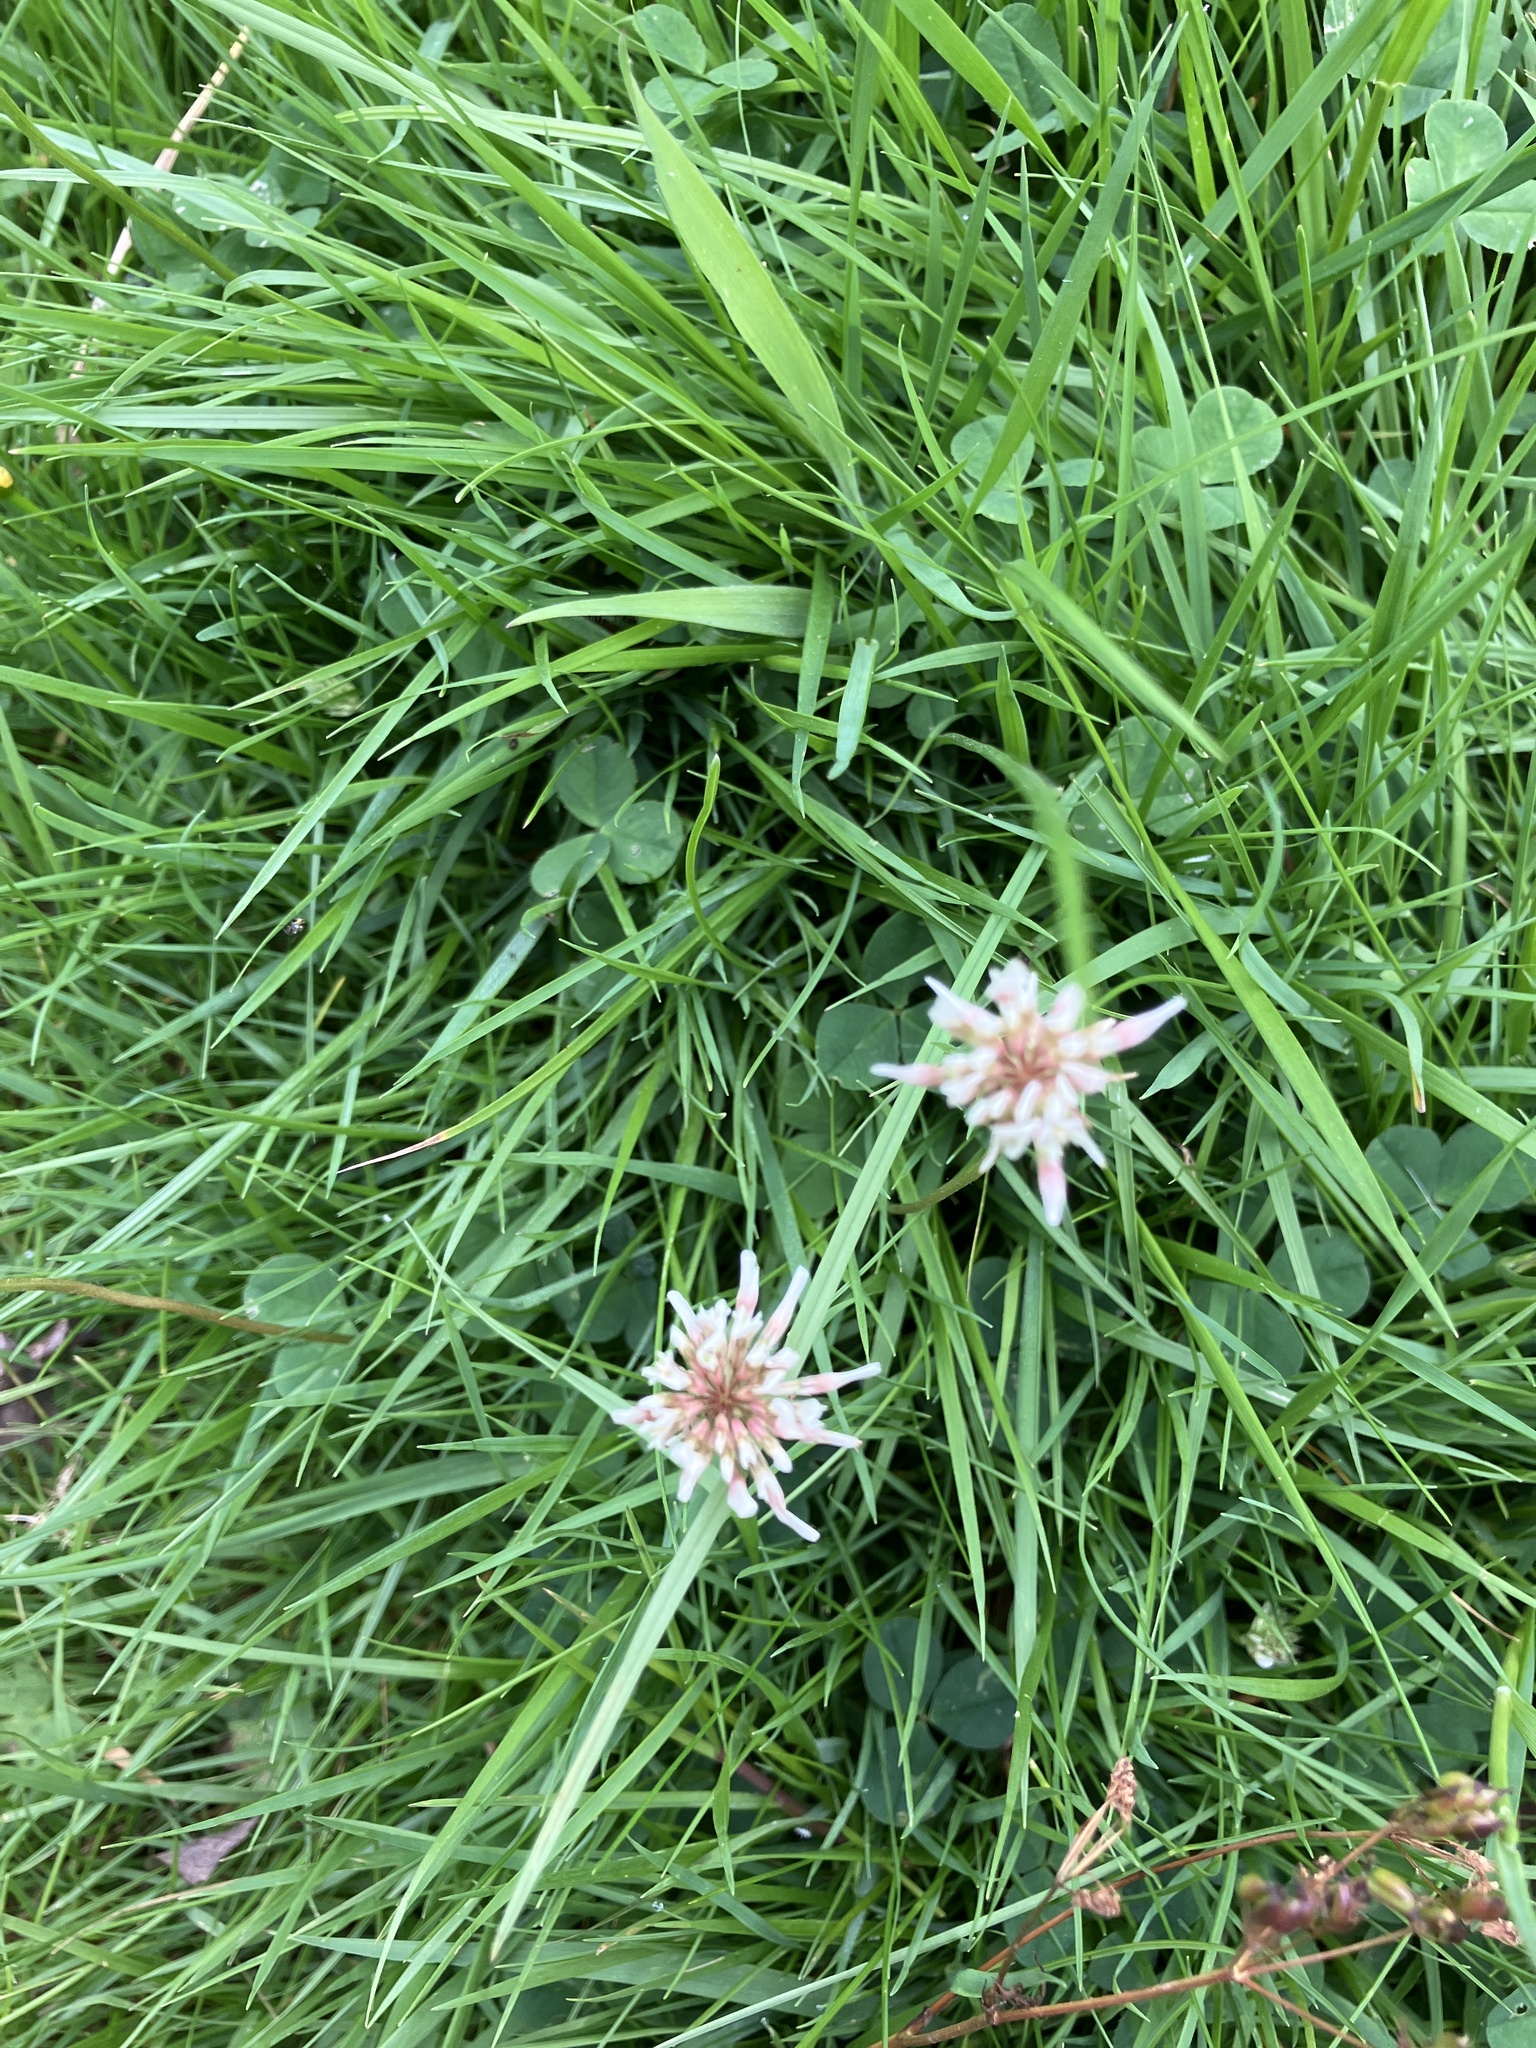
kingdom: Plantae
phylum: Tracheophyta
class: Magnoliopsida
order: Fabales
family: Fabaceae
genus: Trifolium
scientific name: Trifolium repens
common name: White clover
